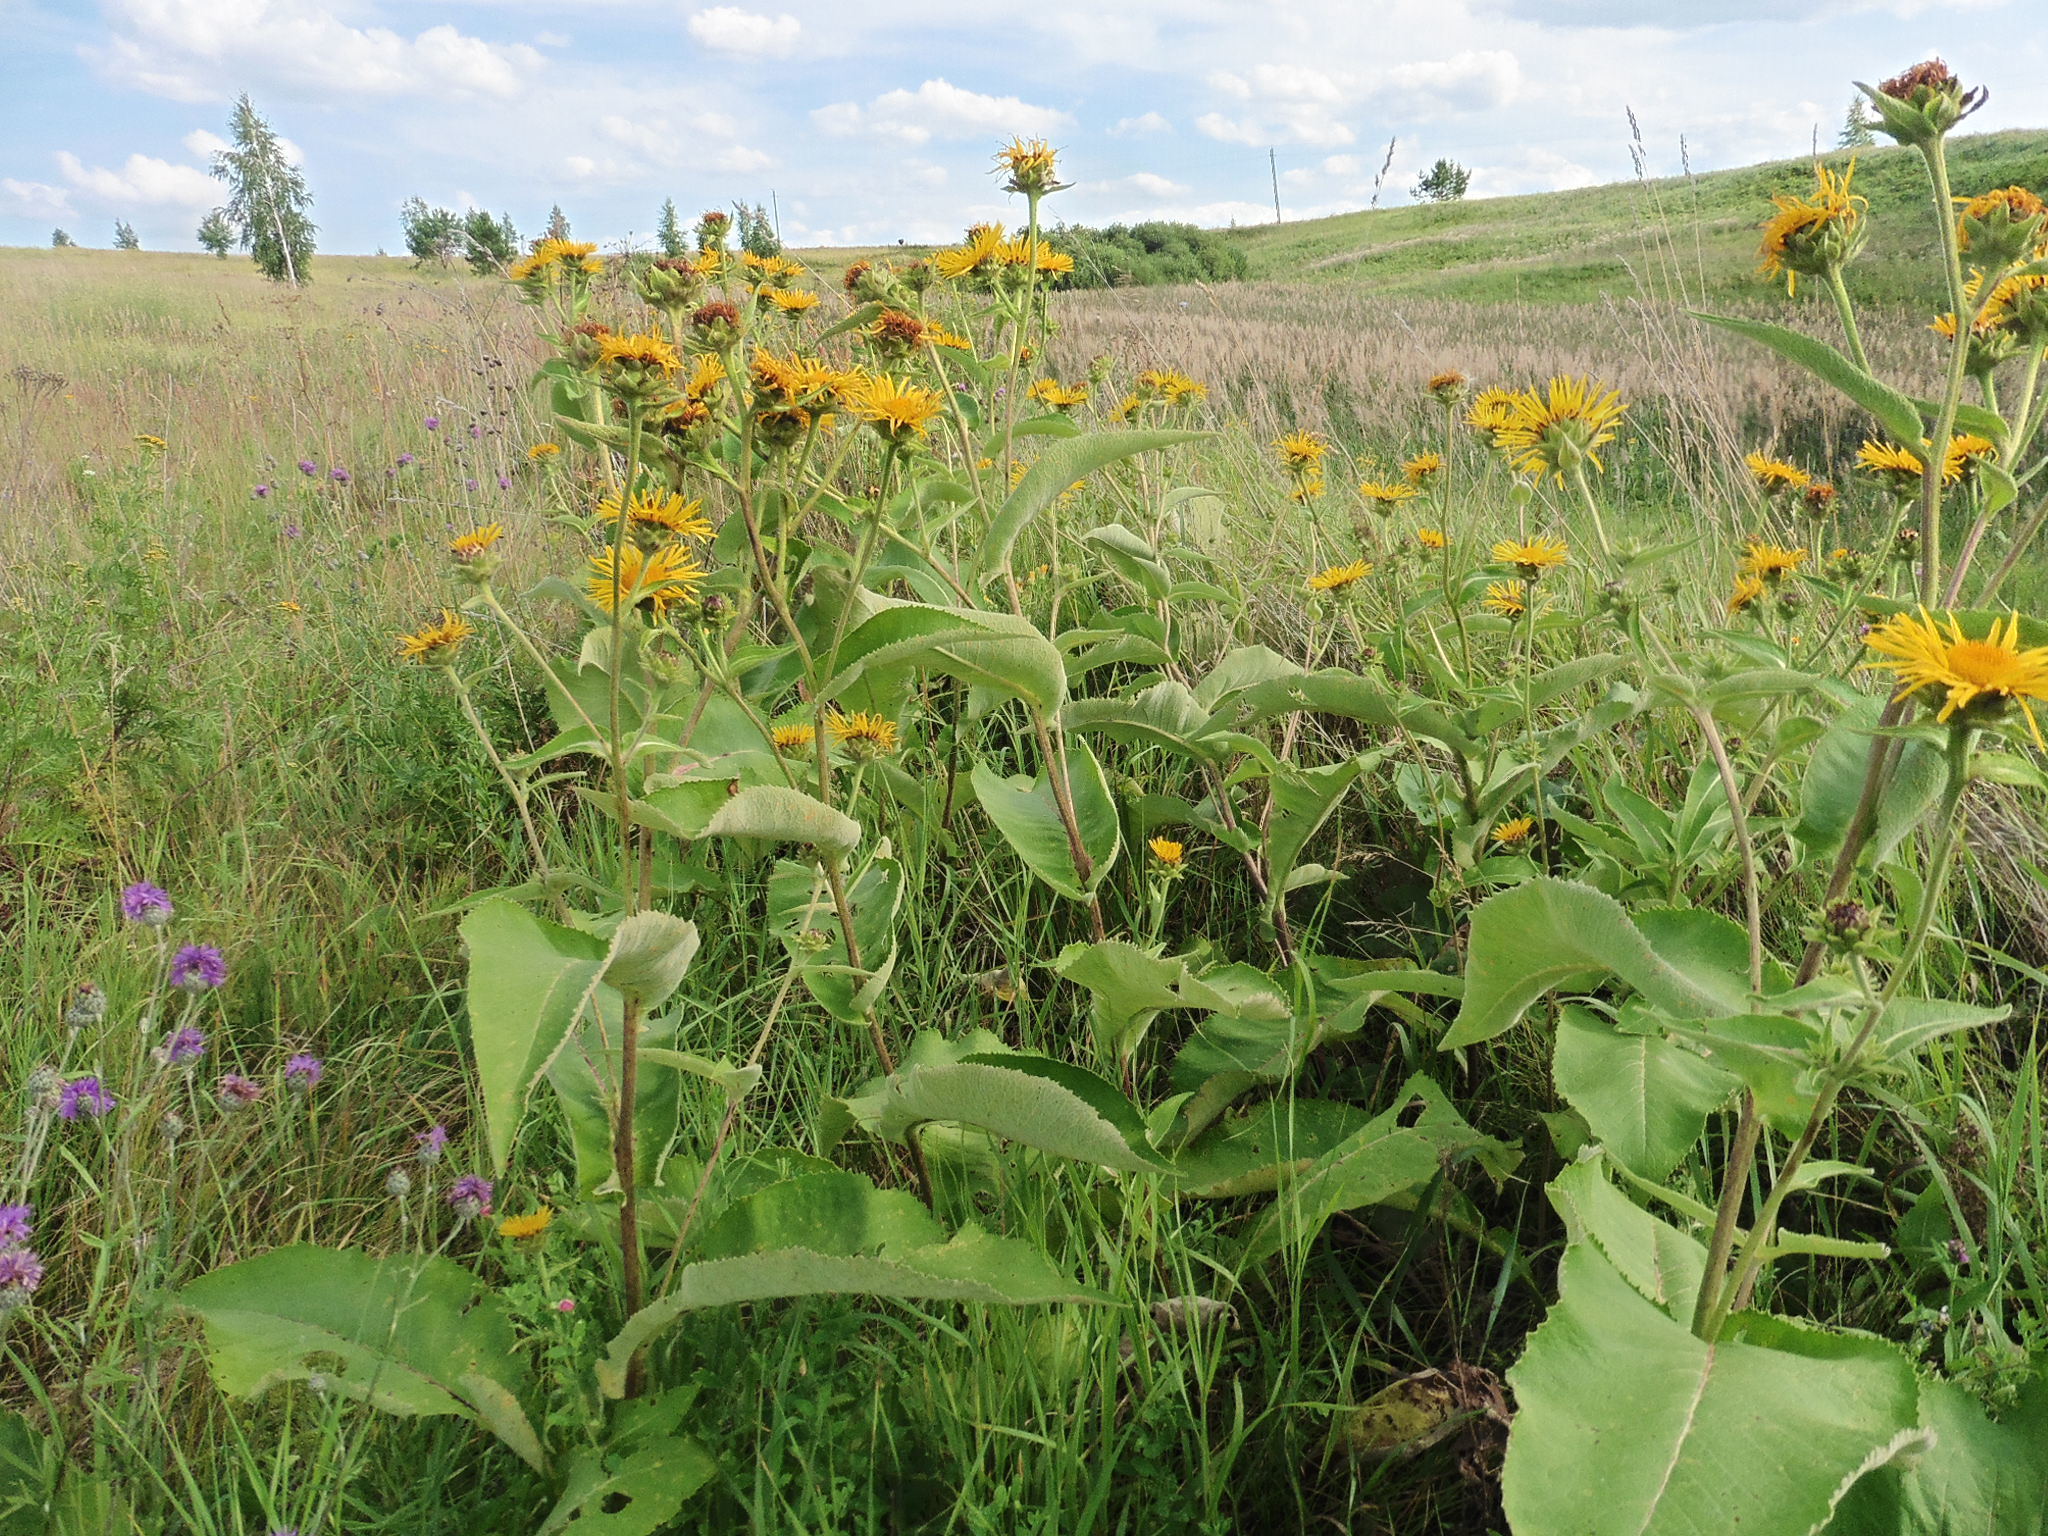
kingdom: Plantae
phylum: Tracheophyta
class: Magnoliopsida
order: Asterales
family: Asteraceae
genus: Inula
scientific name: Inula helenium
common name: Elecampane
